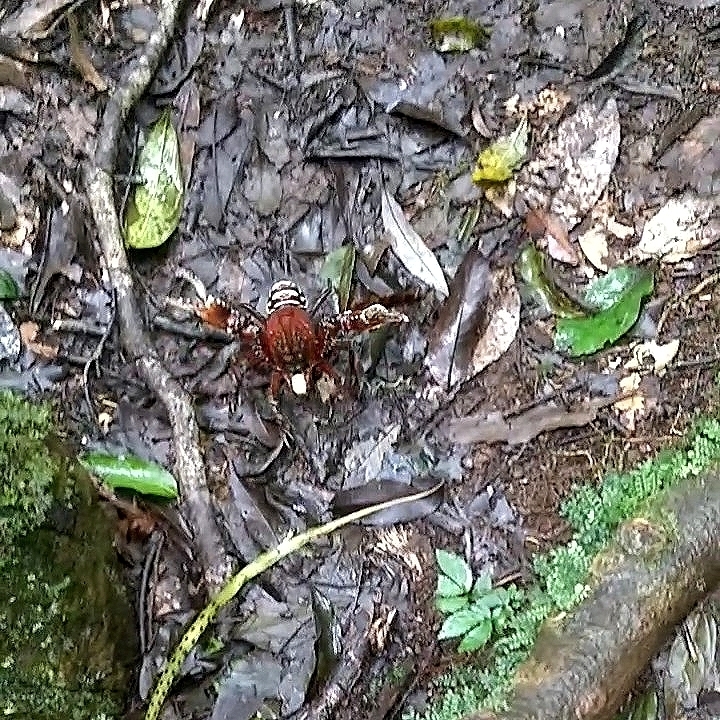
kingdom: Animalia
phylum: Arthropoda
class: Malacostraca
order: Decapoda
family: Parastacidae
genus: Euastacus
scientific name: Euastacus sulcatus
